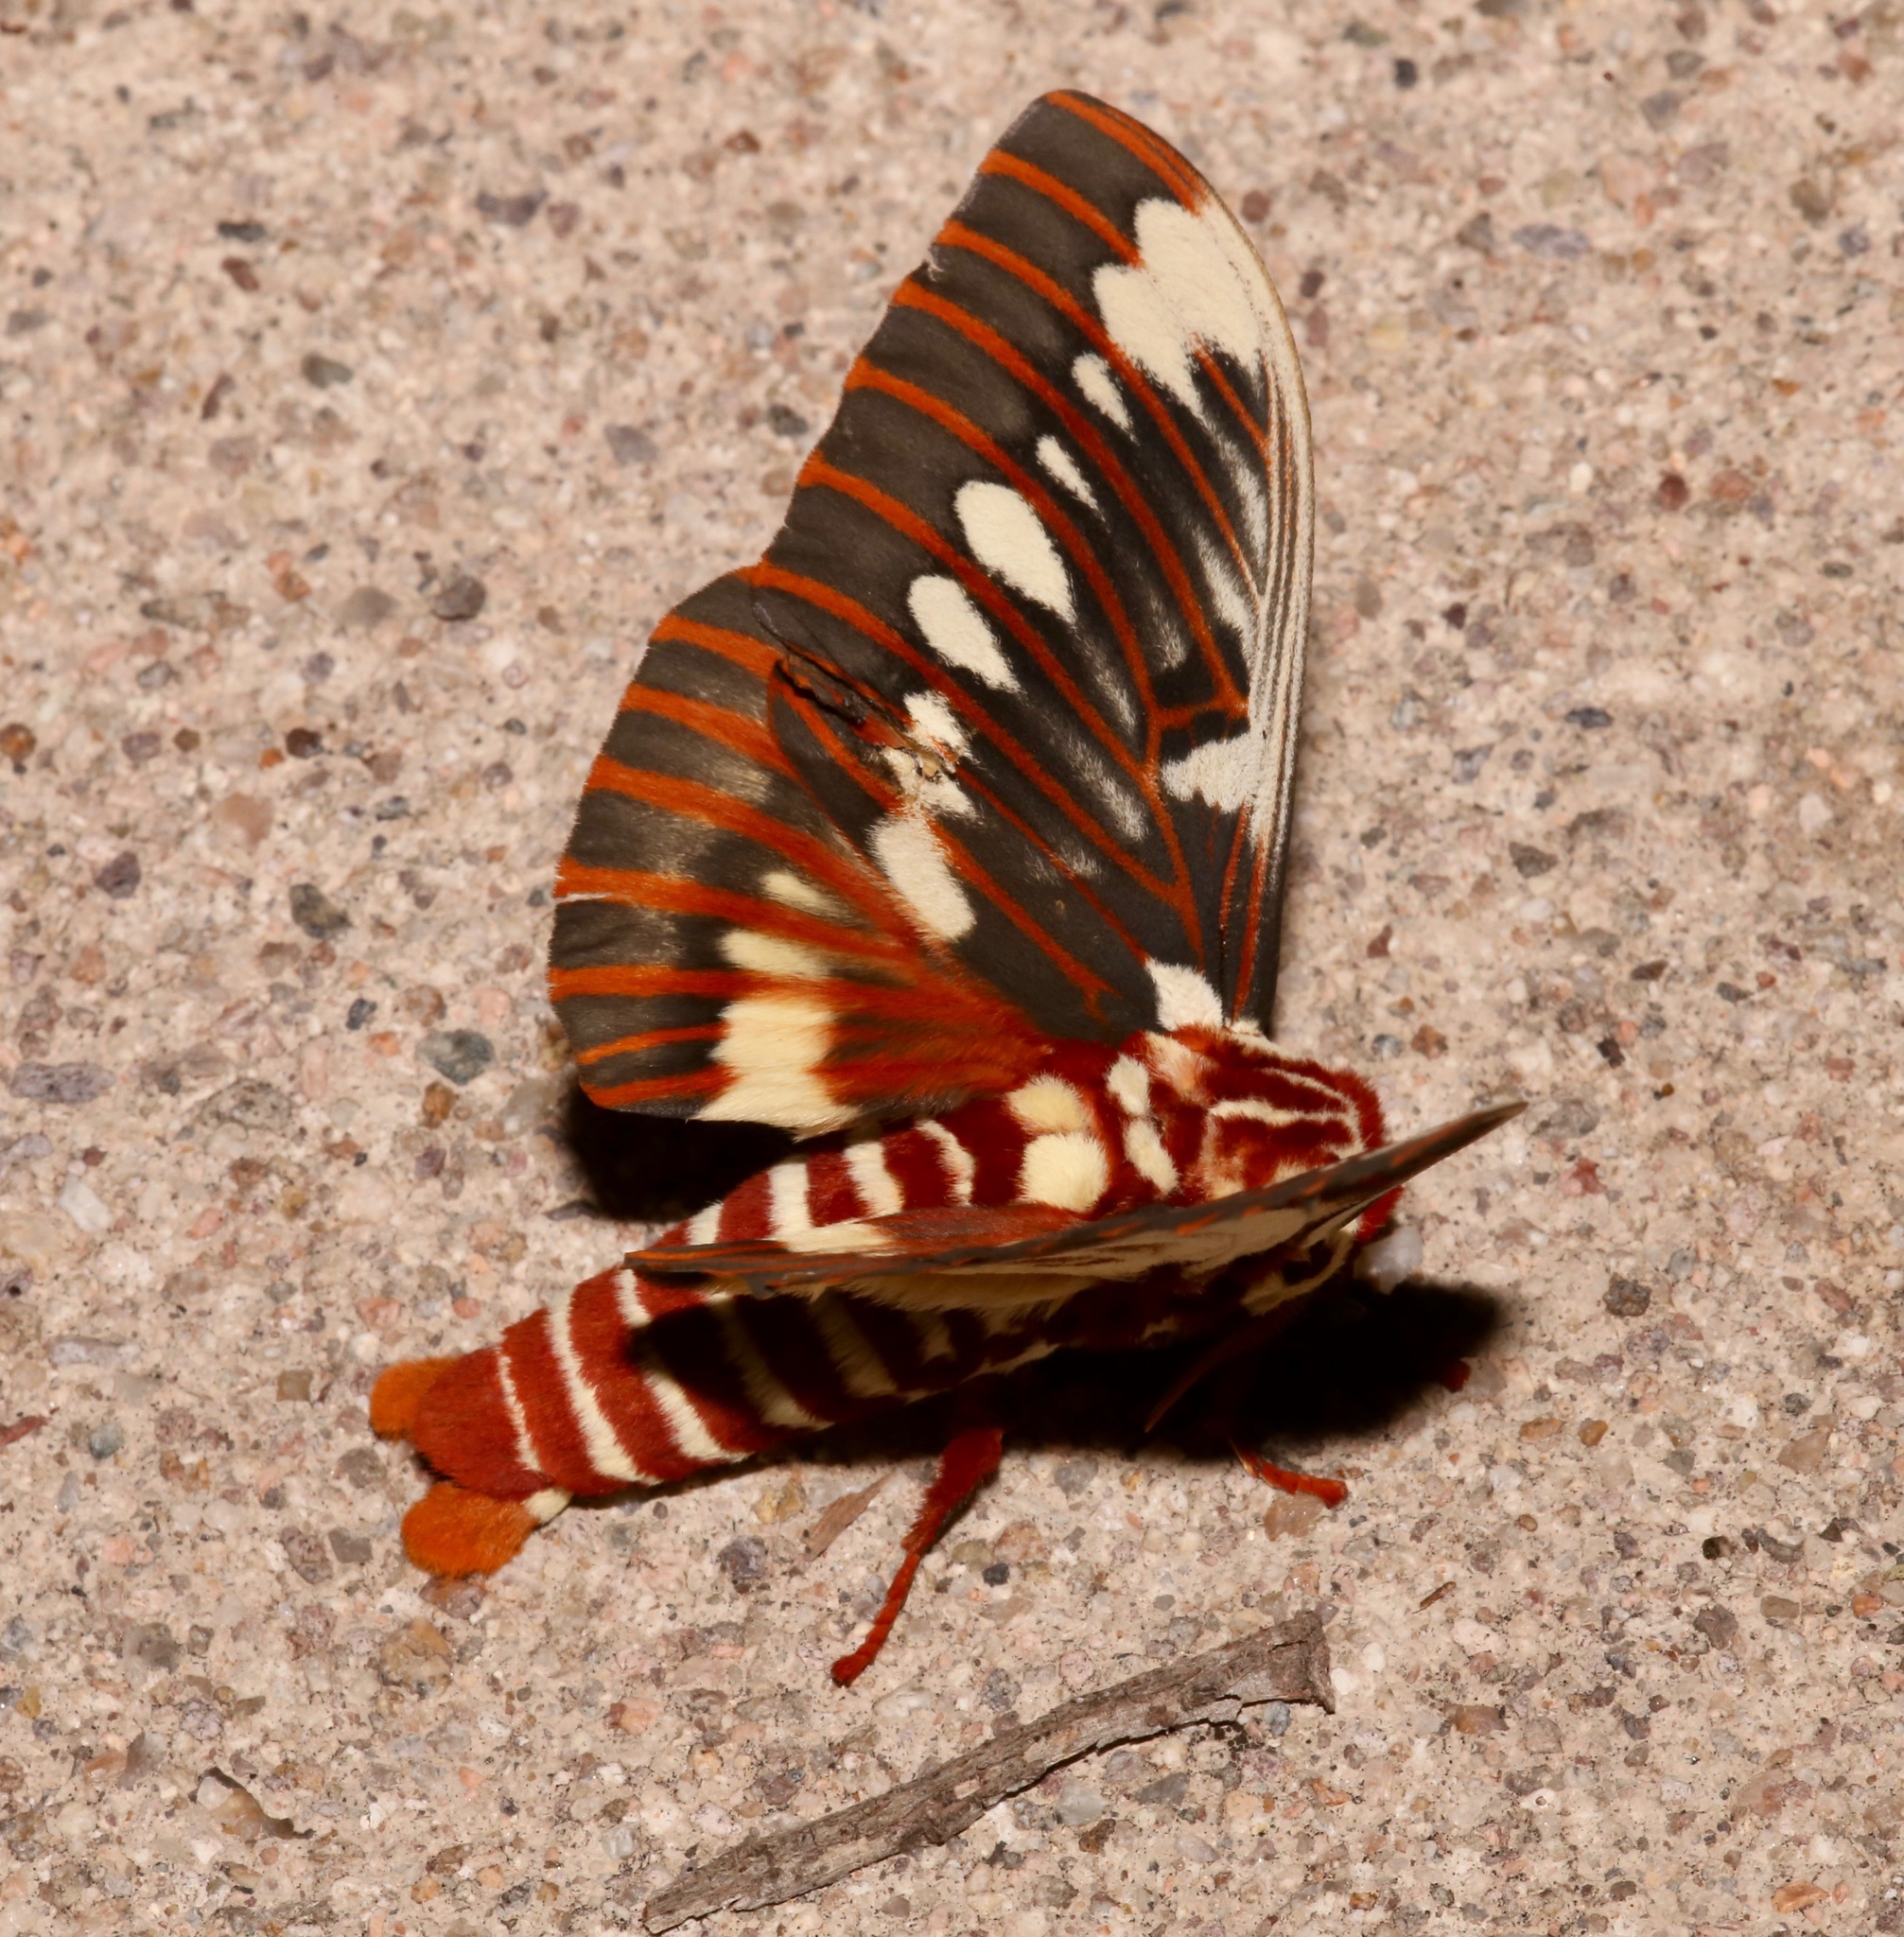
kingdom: Animalia
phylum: Arthropoda
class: Insecta
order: Lepidoptera
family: Saturniidae
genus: Citheronia
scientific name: Citheronia splendens
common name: Splendid royal moth
